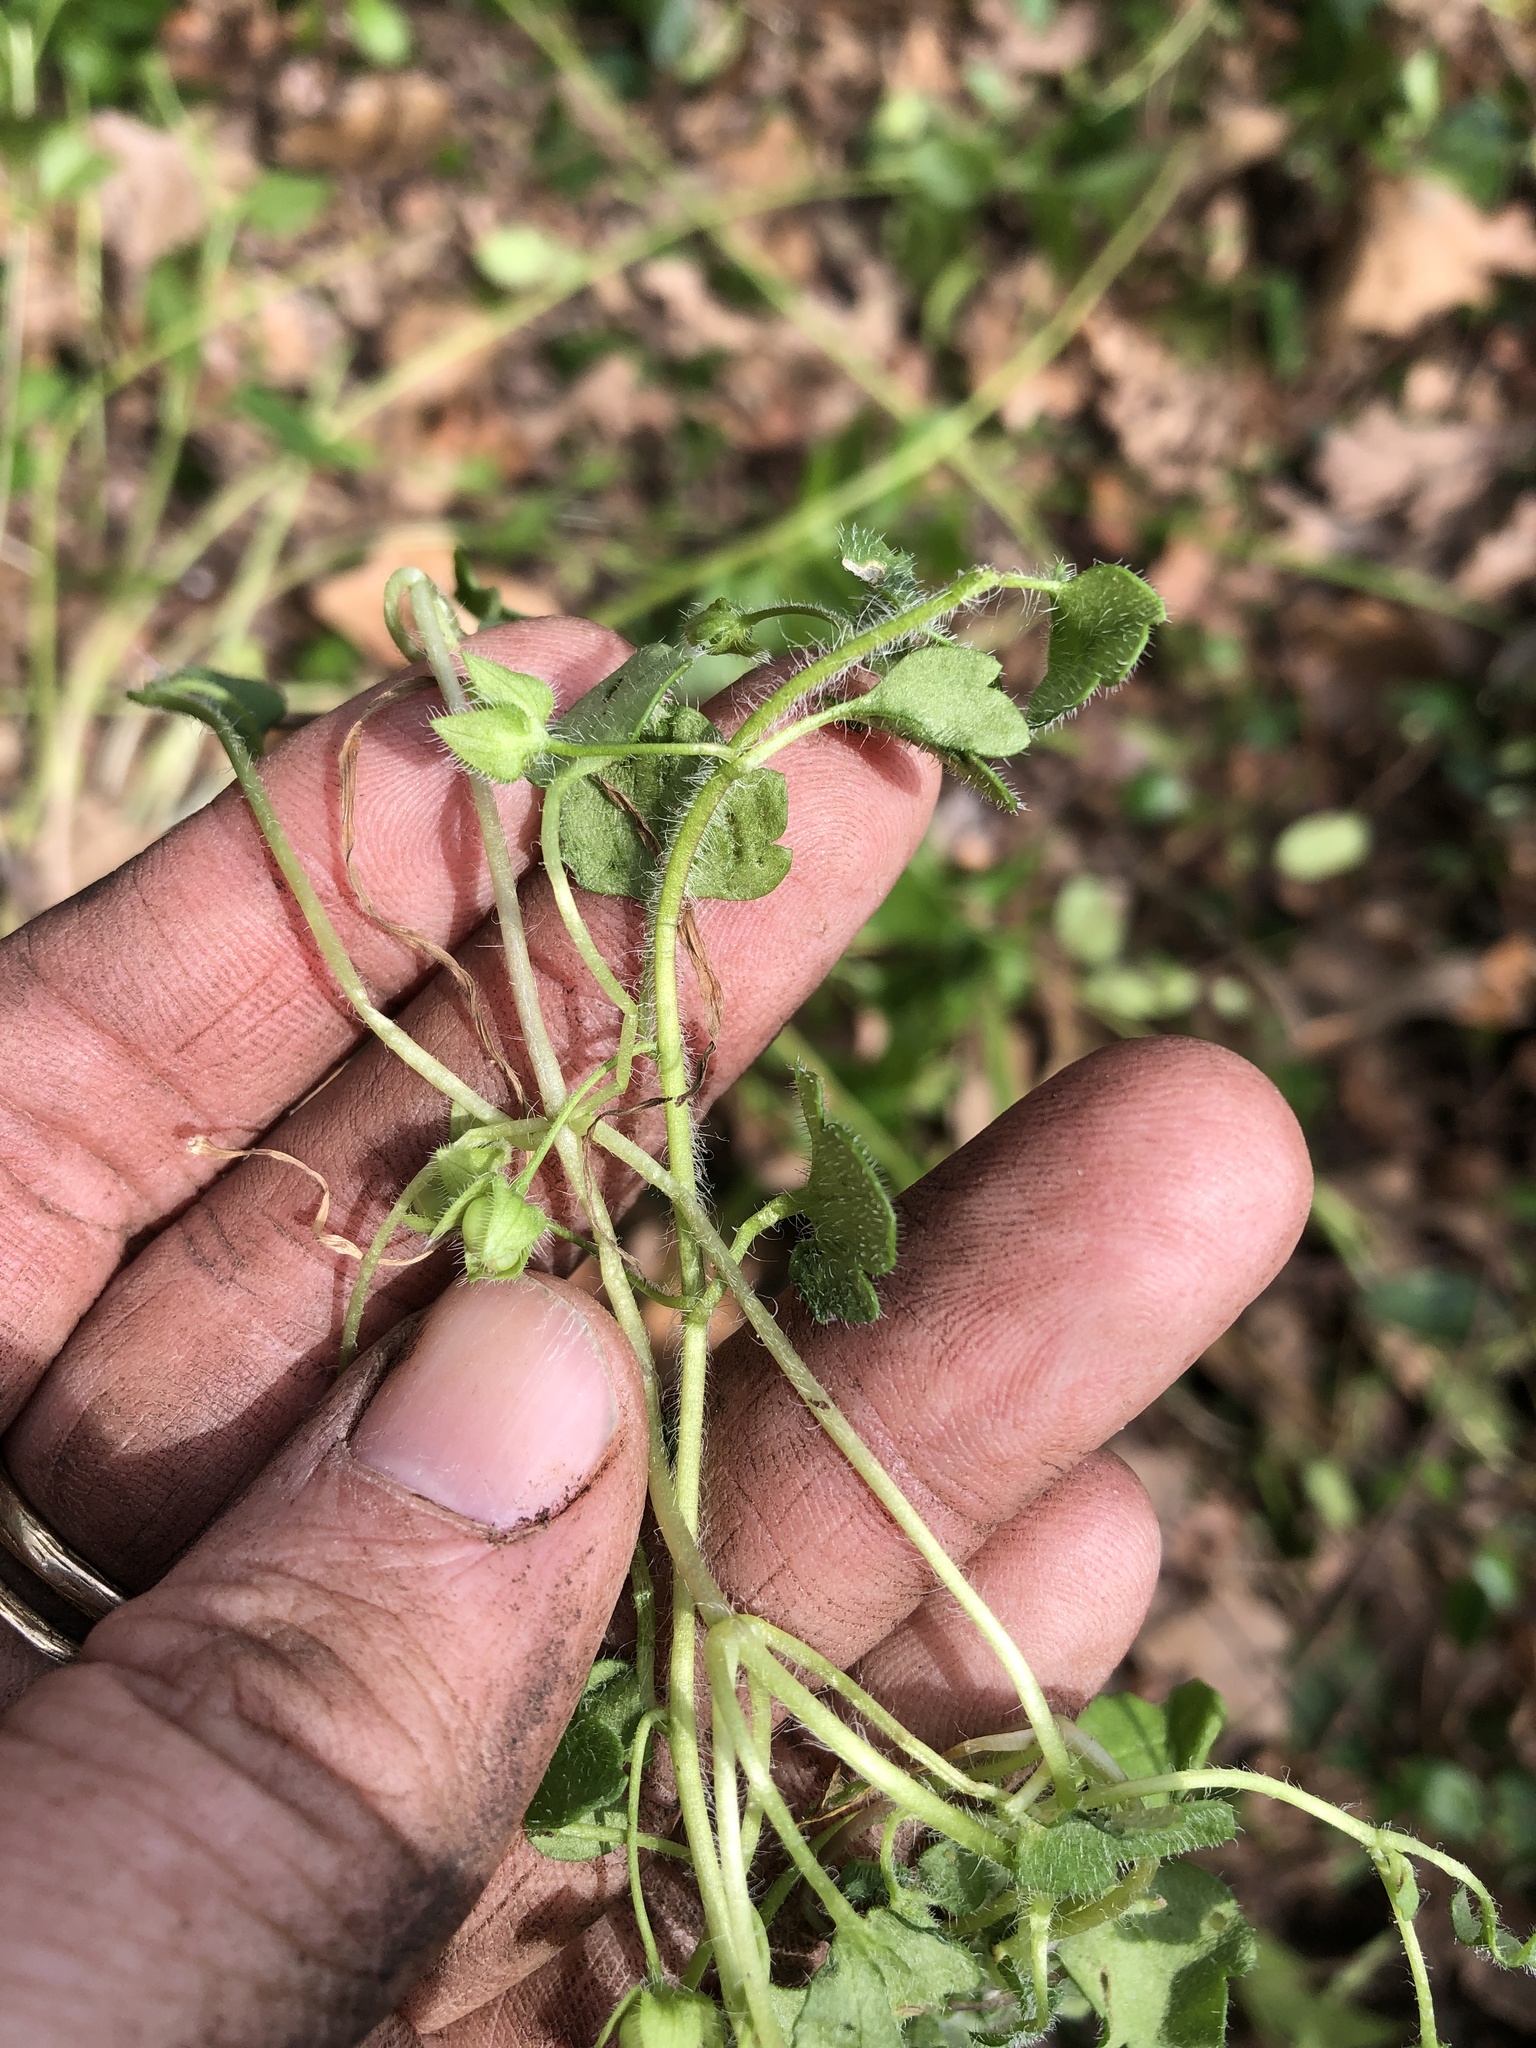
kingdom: Plantae
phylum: Tracheophyta
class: Magnoliopsida
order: Lamiales
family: Plantaginaceae
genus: Veronica
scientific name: Veronica hederifolia
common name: Ivy-leaved speedwell
